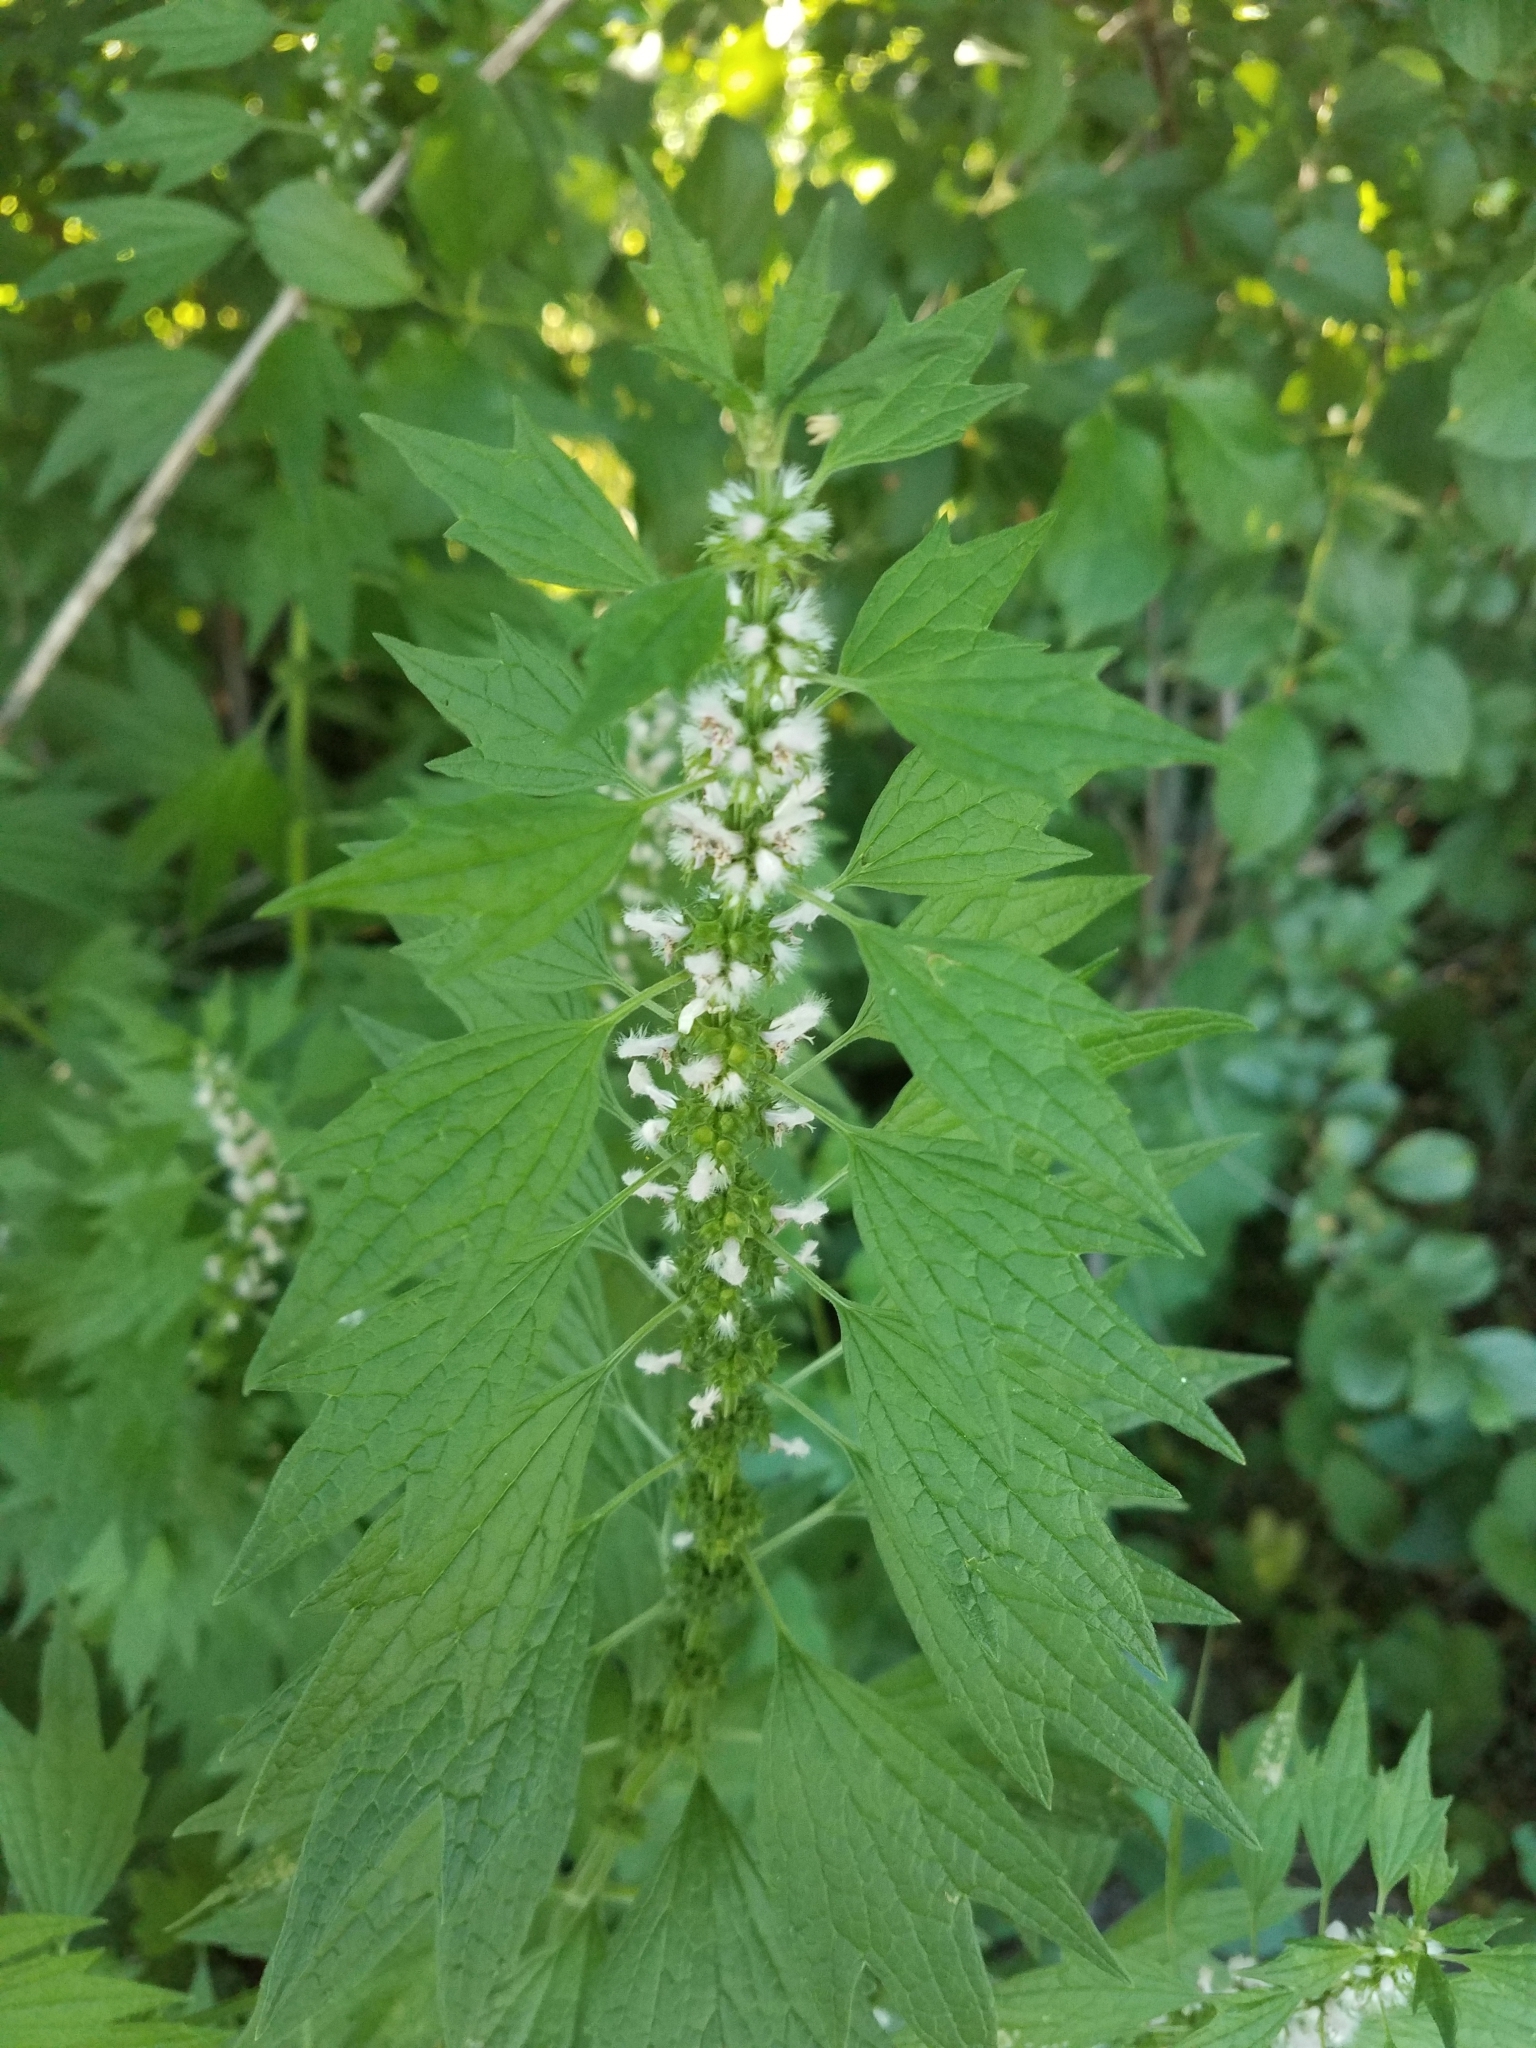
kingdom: Plantae
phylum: Tracheophyta
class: Magnoliopsida
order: Lamiales
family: Lamiaceae
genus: Leonurus
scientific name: Leonurus cardiaca
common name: Motherwort
